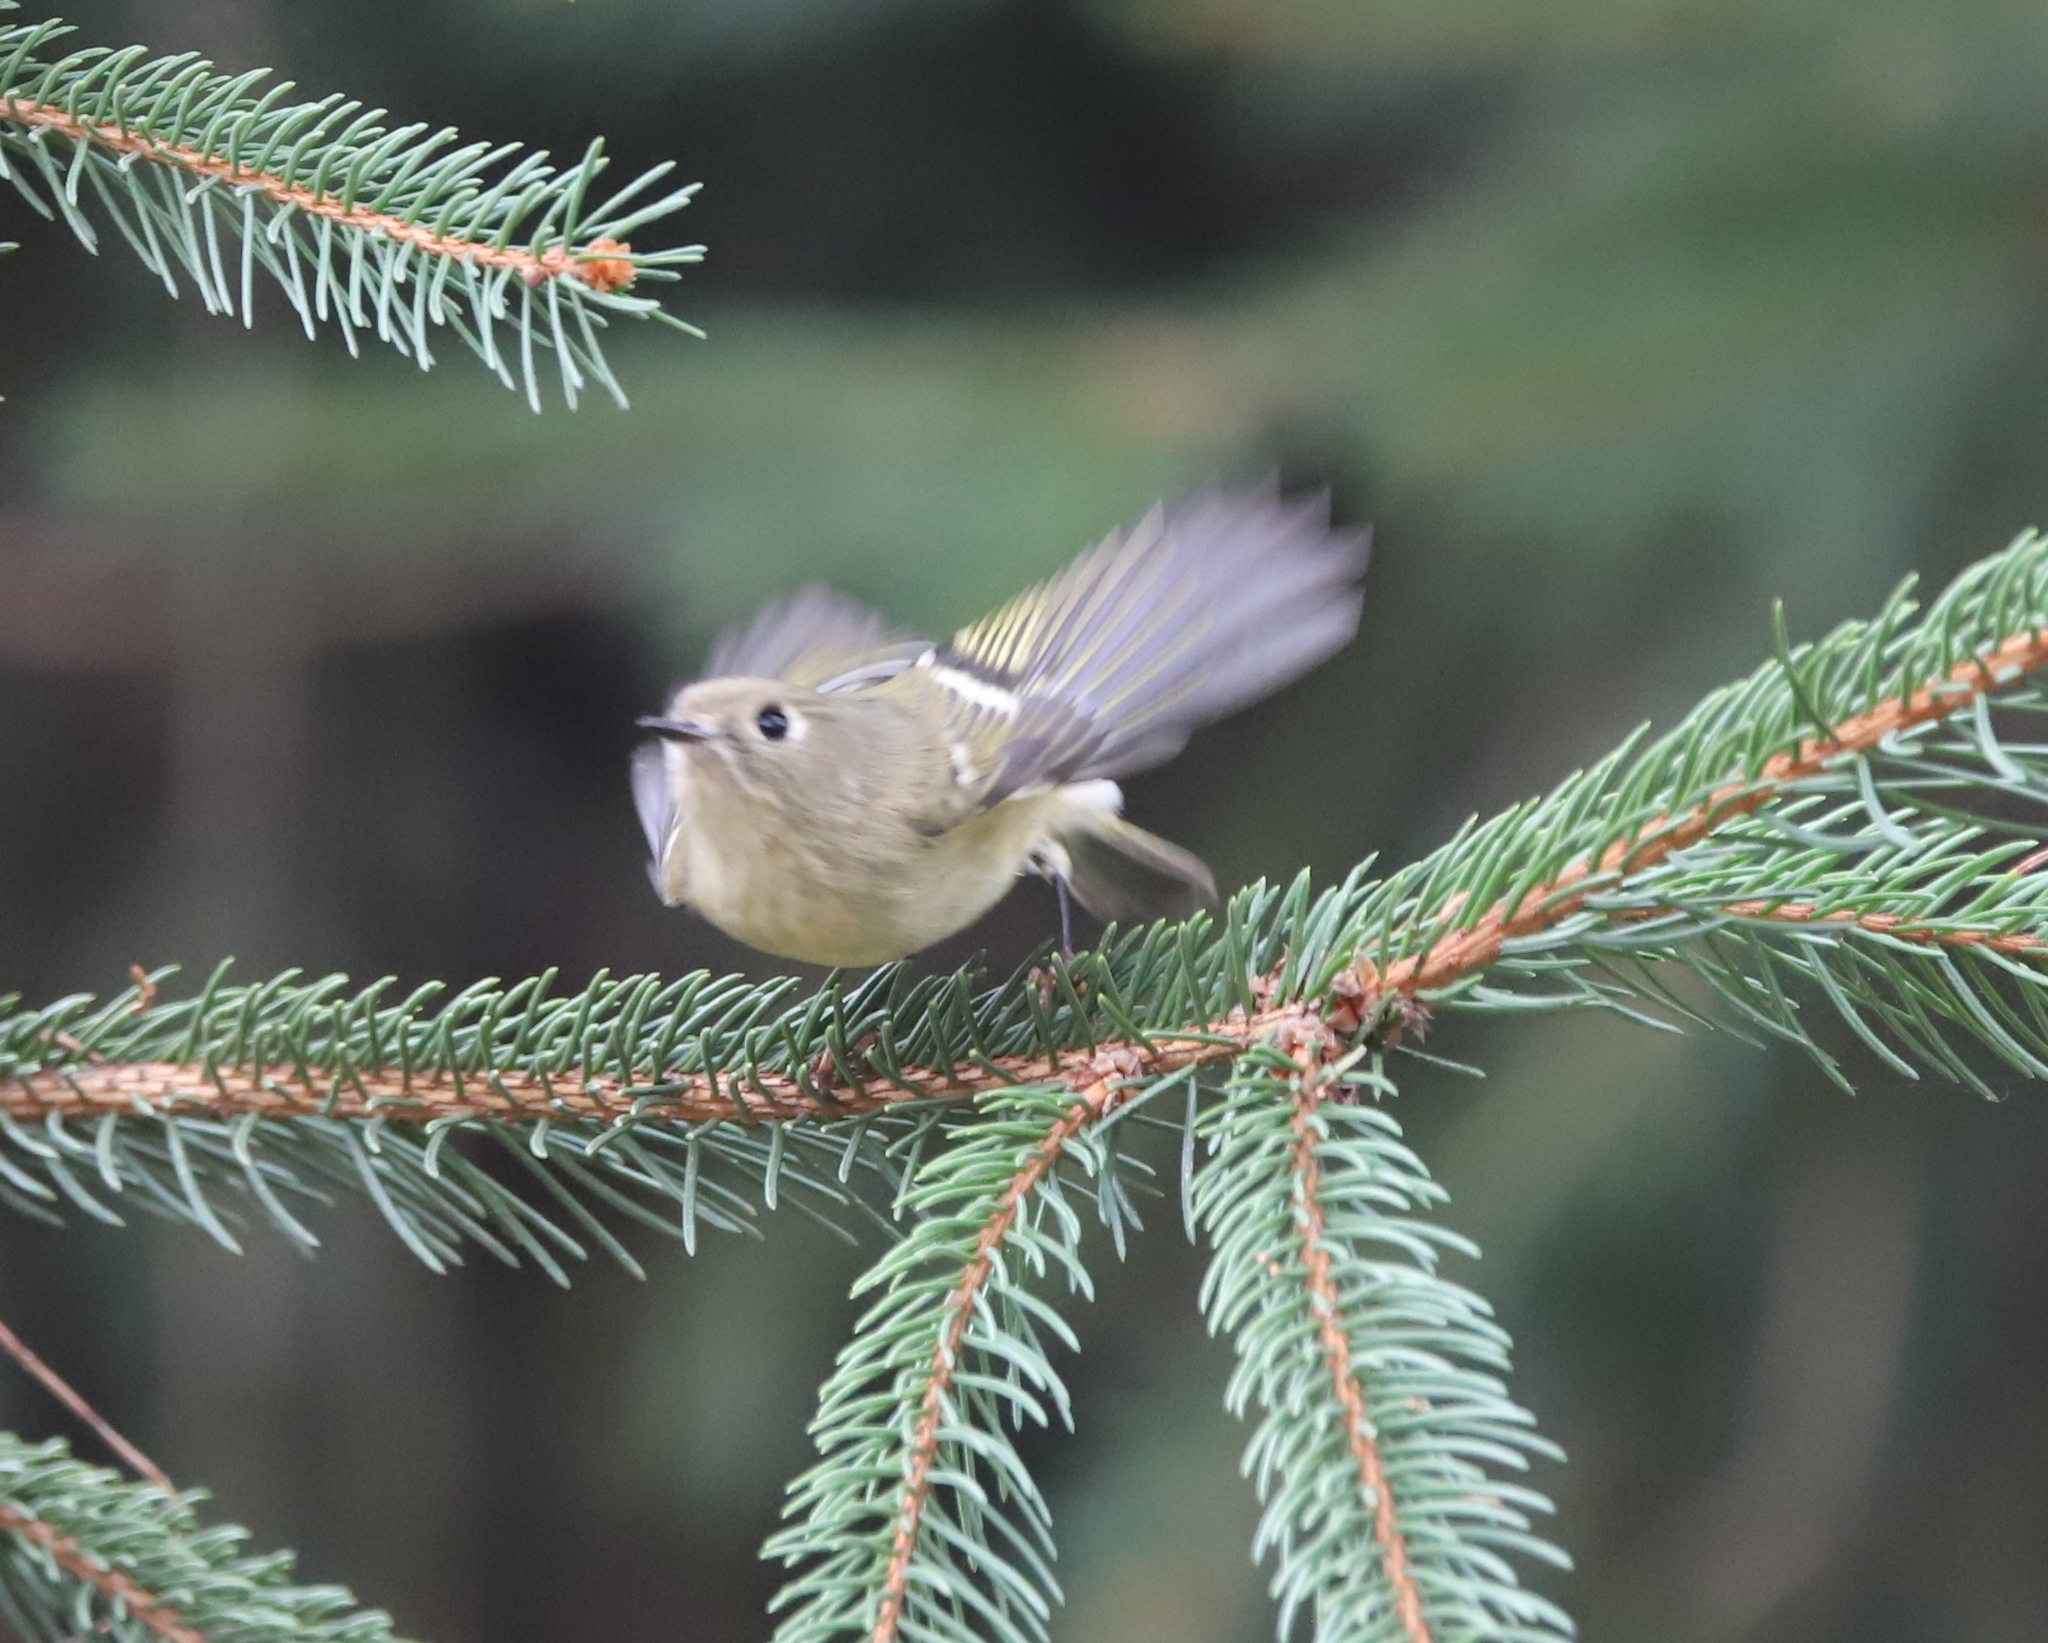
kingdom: Animalia
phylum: Chordata
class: Aves
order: Passeriformes
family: Regulidae
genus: Regulus
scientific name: Regulus calendula
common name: Ruby-crowned kinglet
